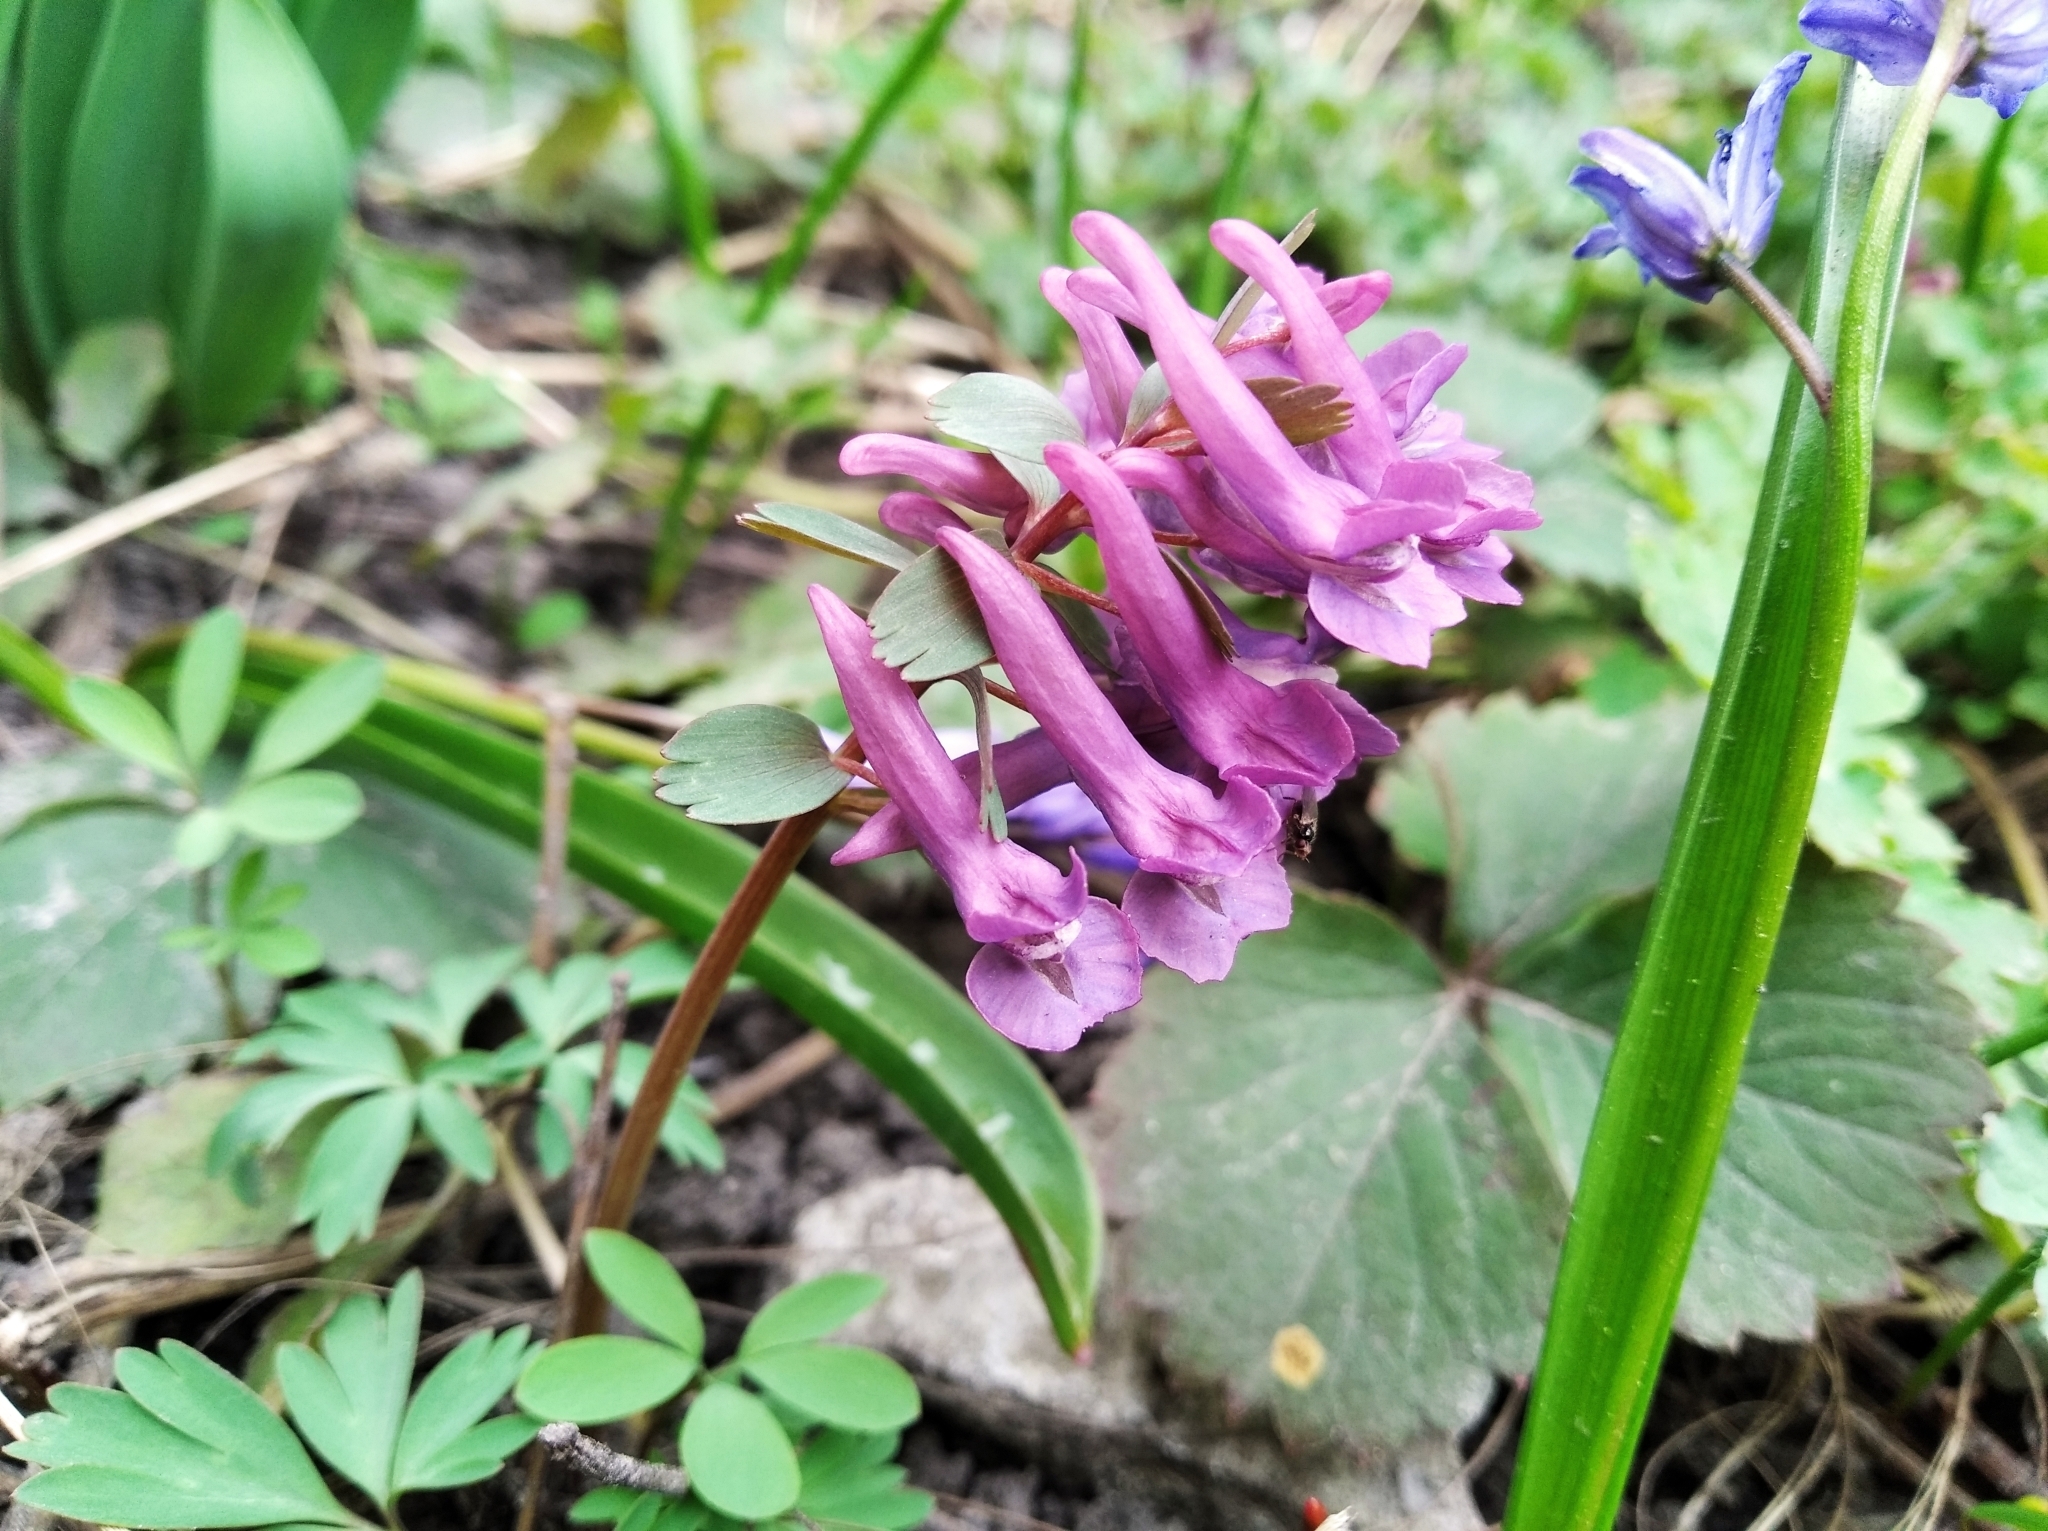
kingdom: Plantae
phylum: Tracheophyta
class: Magnoliopsida
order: Ranunculales
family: Papaveraceae
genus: Corydalis
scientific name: Corydalis solida
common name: Bird-in-a-bush
